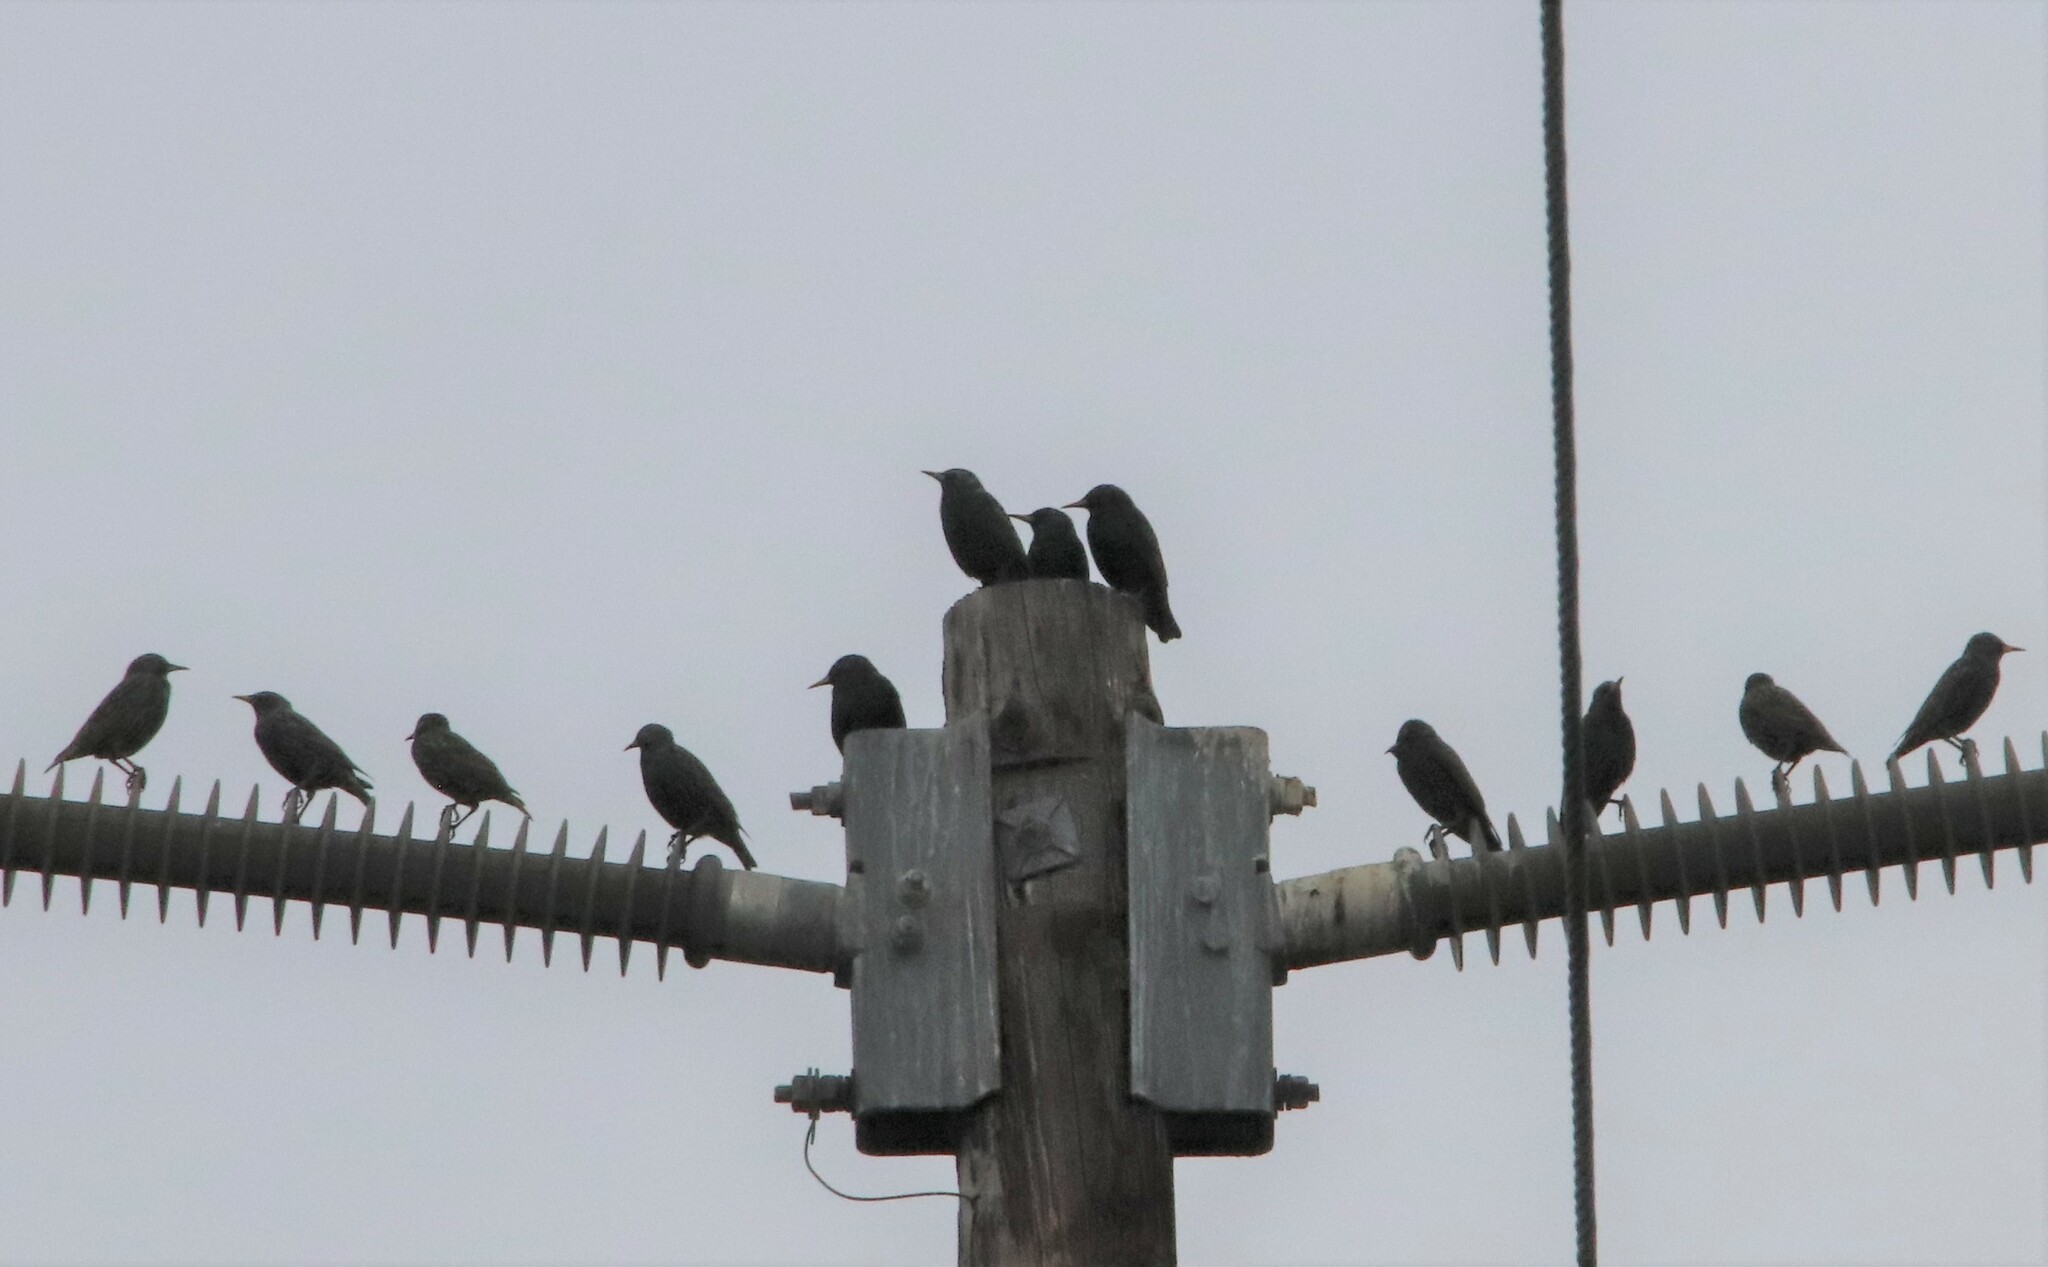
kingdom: Animalia
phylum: Chordata
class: Aves
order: Passeriformes
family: Sturnidae
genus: Sturnus
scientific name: Sturnus vulgaris
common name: Common starling
